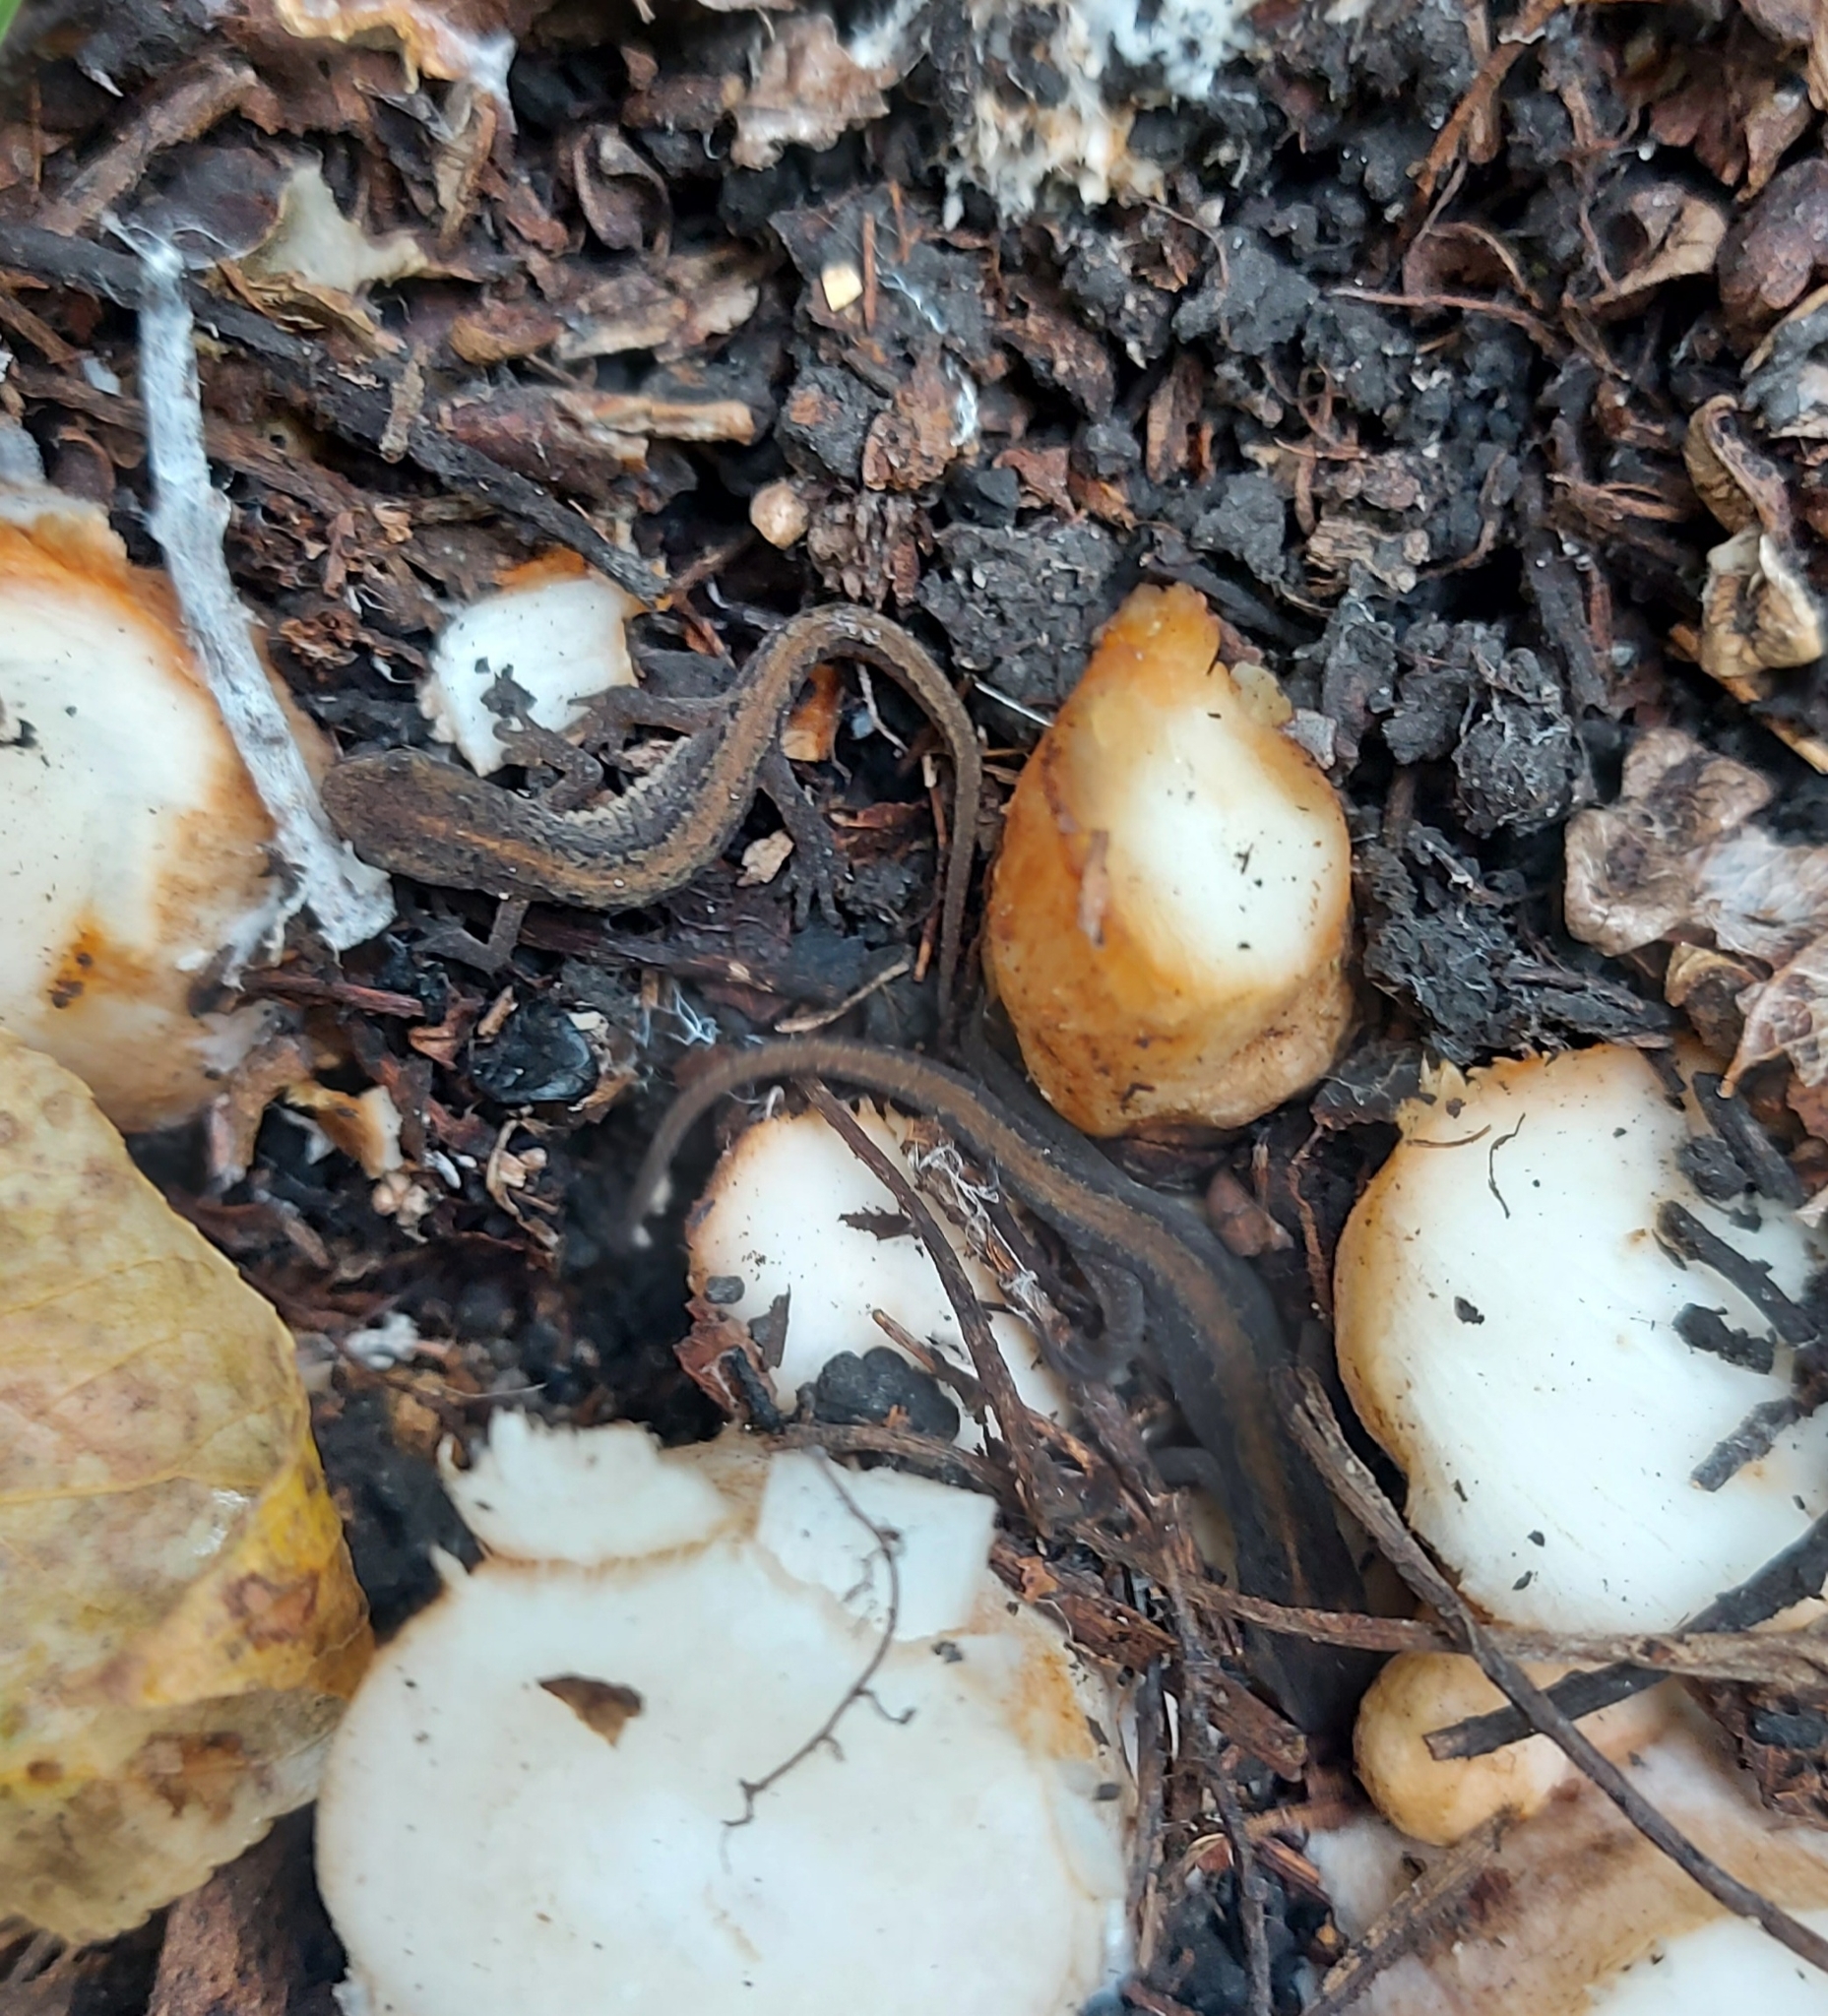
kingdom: Animalia
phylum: Chordata
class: Amphibia
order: Caudata
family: Salamandridae
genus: Lissotriton
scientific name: Lissotriton vulgaris
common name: Smooth newt
